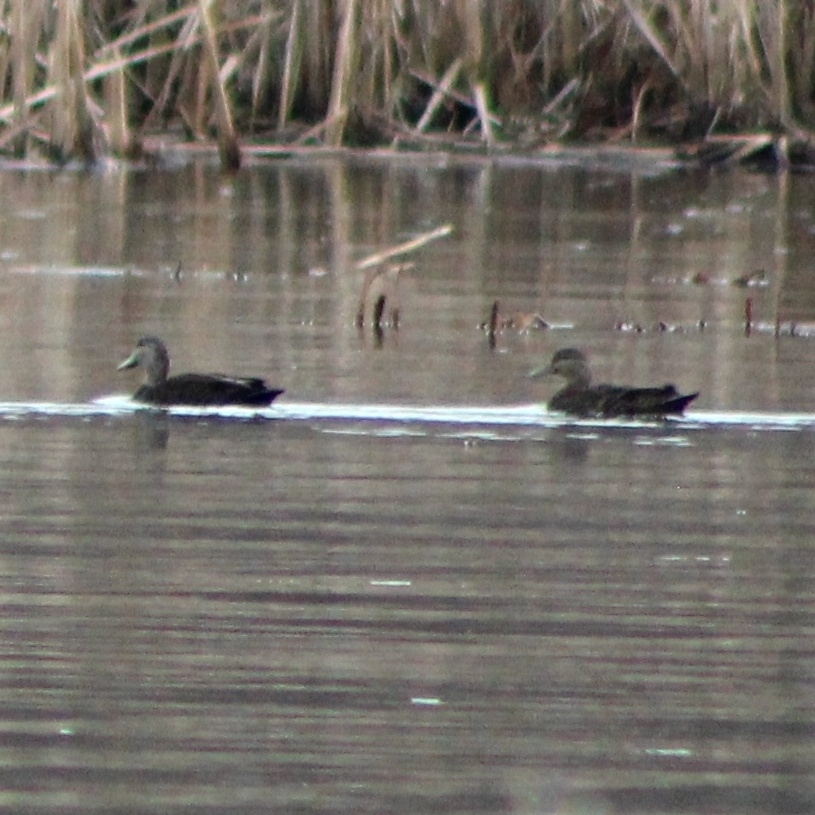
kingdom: Animalia
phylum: Chordata
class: Aves
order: Anseriformes
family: Anatidae
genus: Anas
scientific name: Anas rubripes
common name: American black duck
